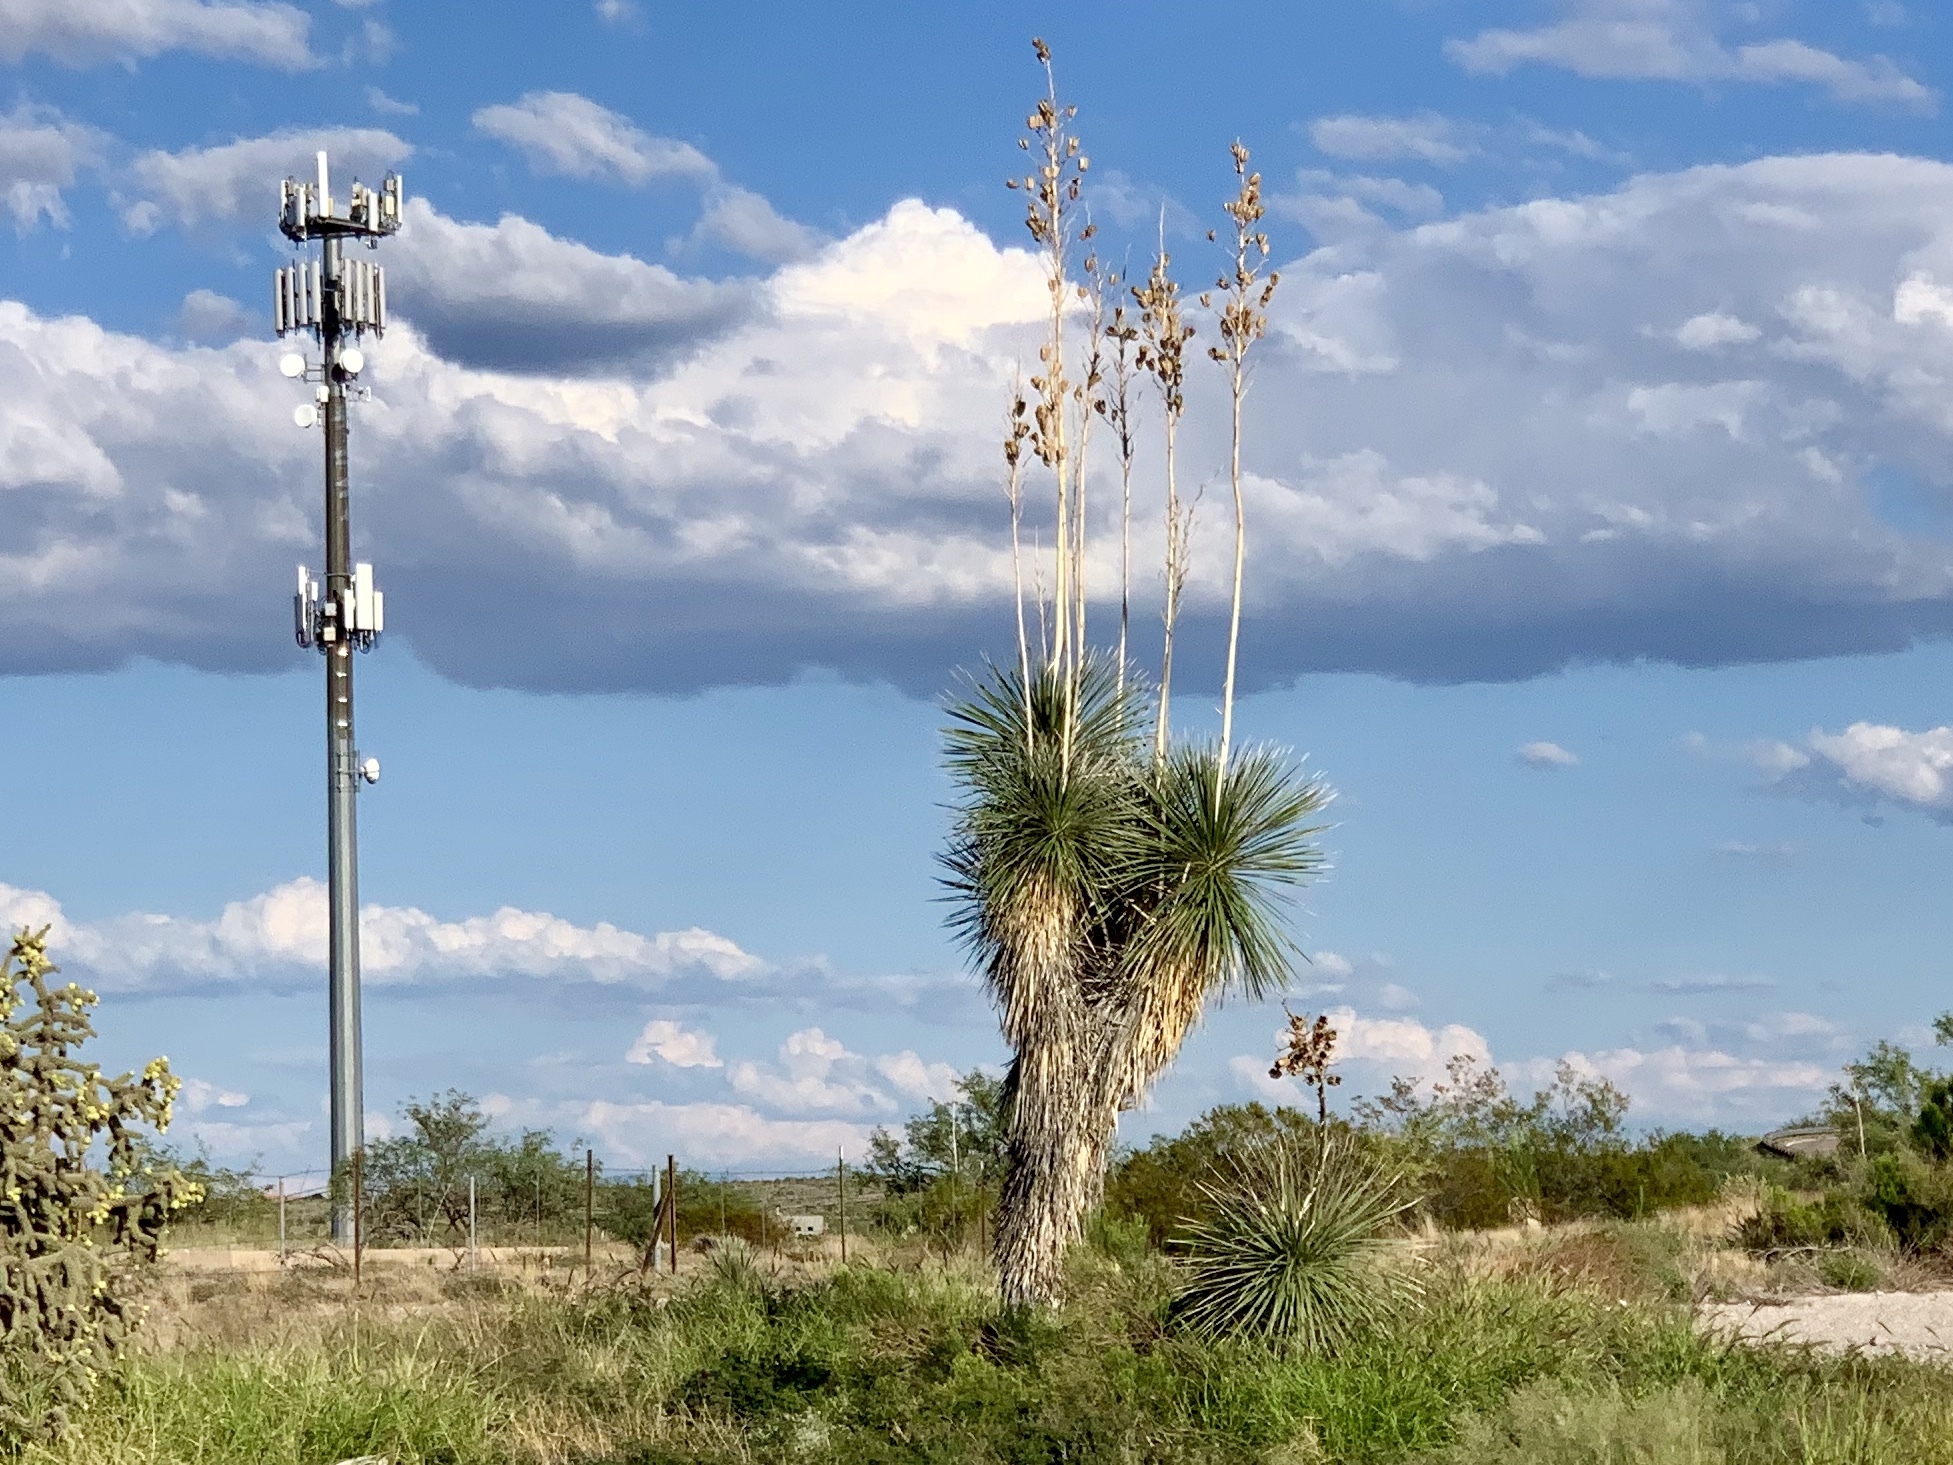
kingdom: Plantae
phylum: Tracheophyta
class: Liliopsida
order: Asparagales
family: Asparagaceae
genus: Yucca
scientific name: Yucca elata
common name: Palmella
